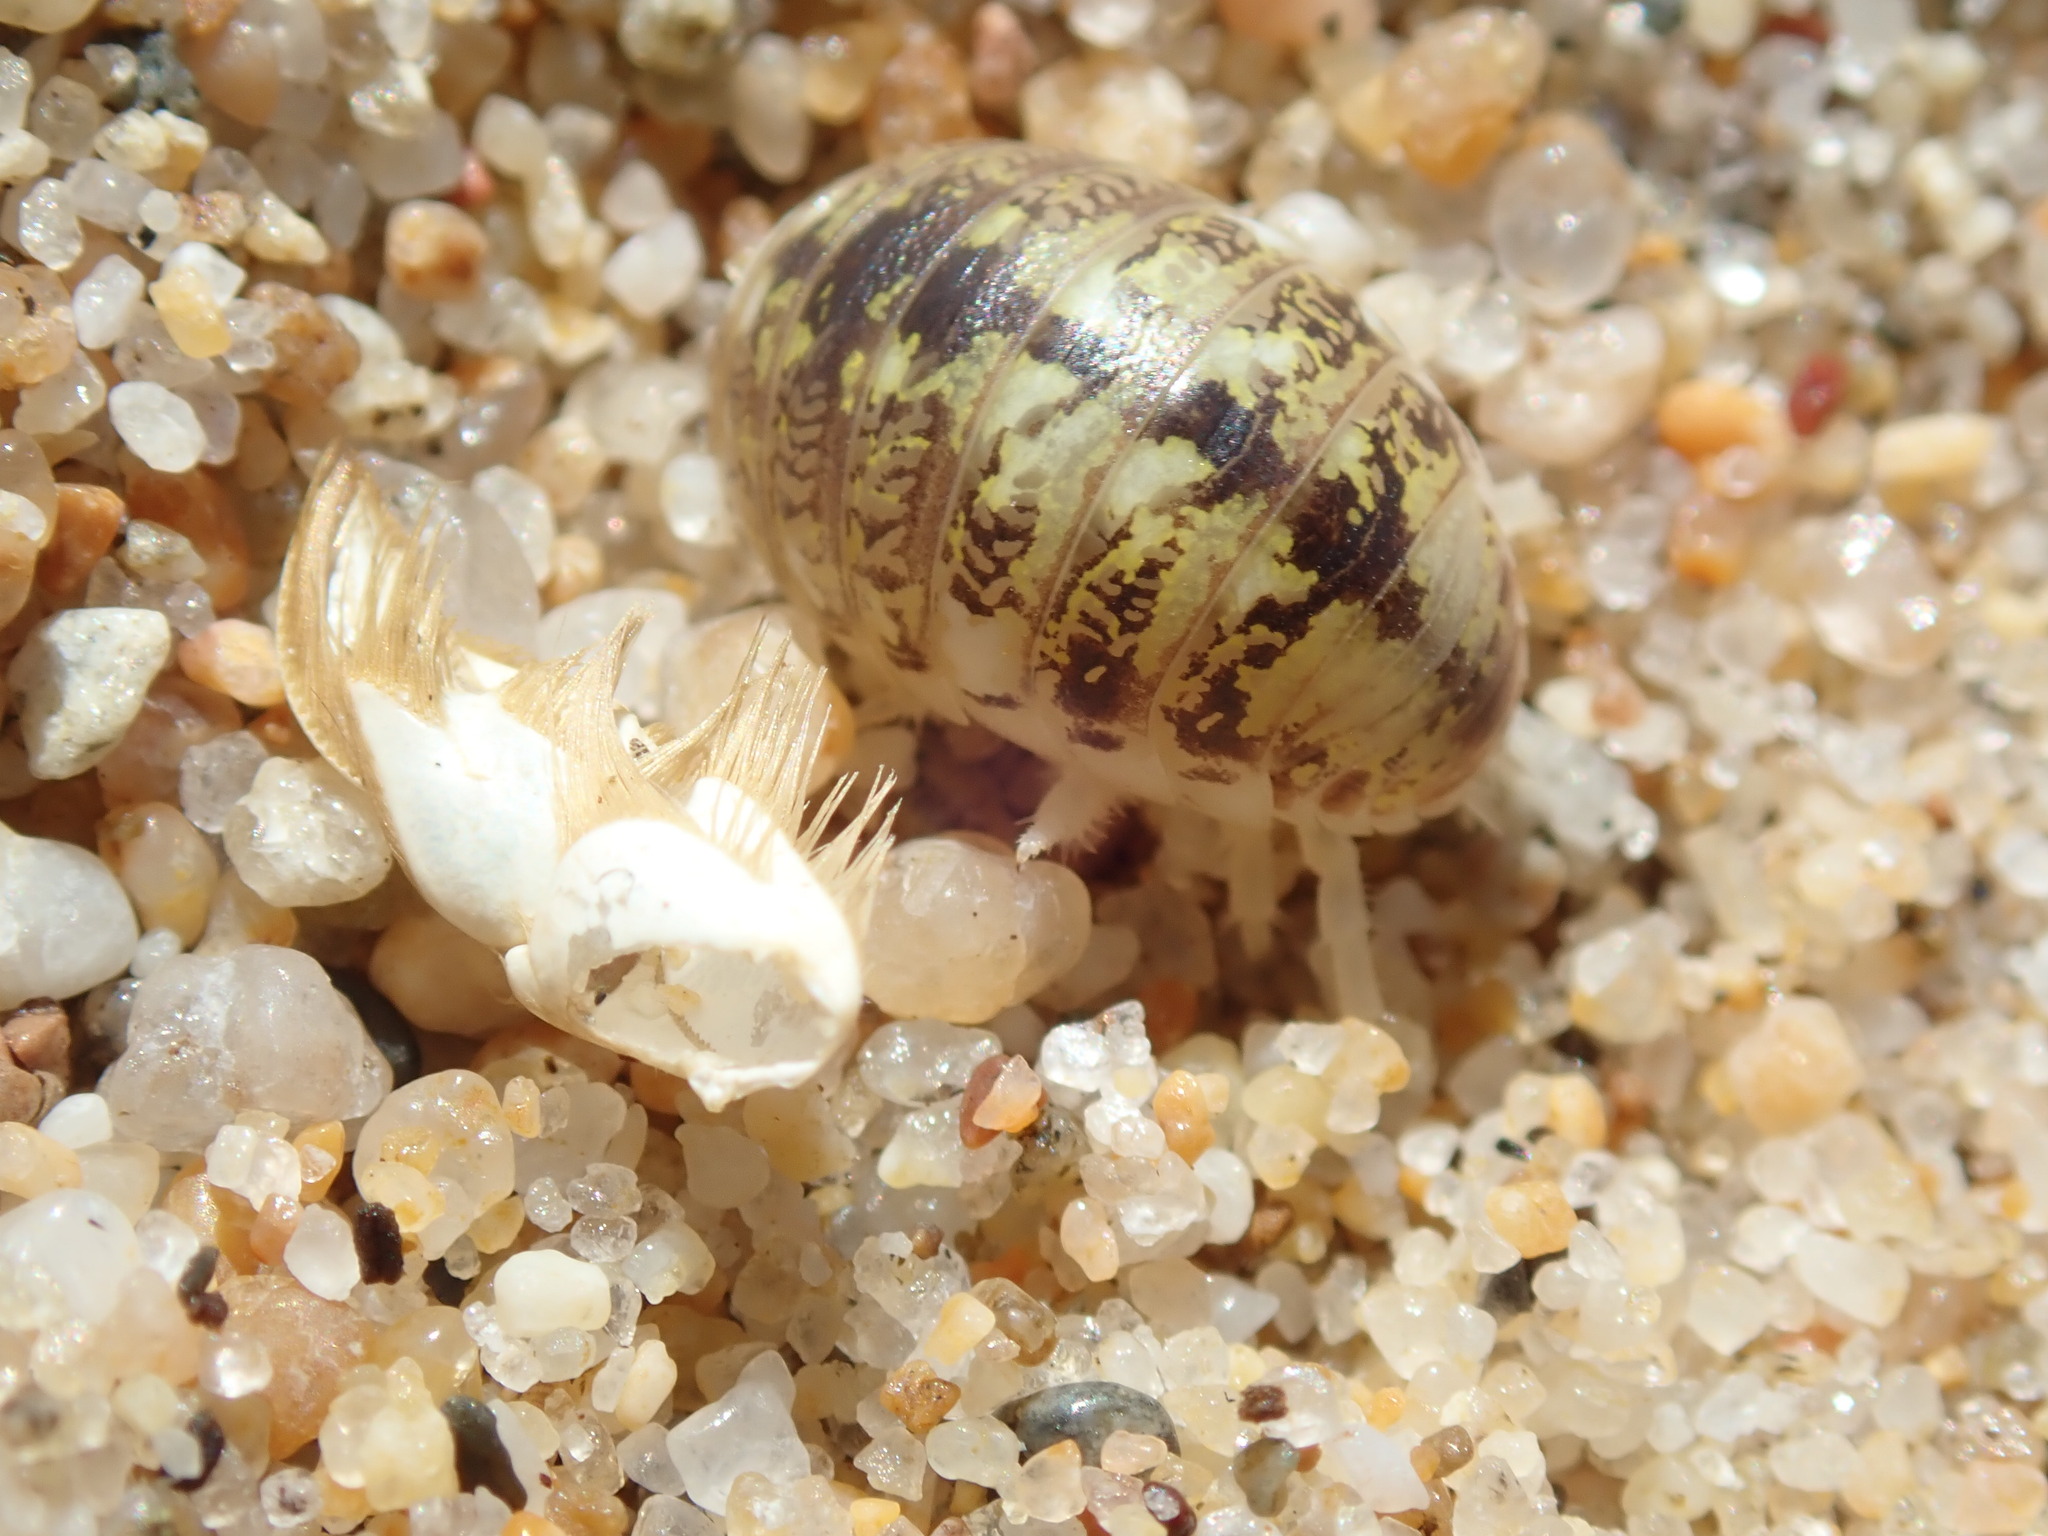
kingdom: Animalia
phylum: Arthropoda
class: Malacostraca
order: Isopoda
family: Alloniscidae
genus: Alloniscus
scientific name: Alloniscus perconvexus
